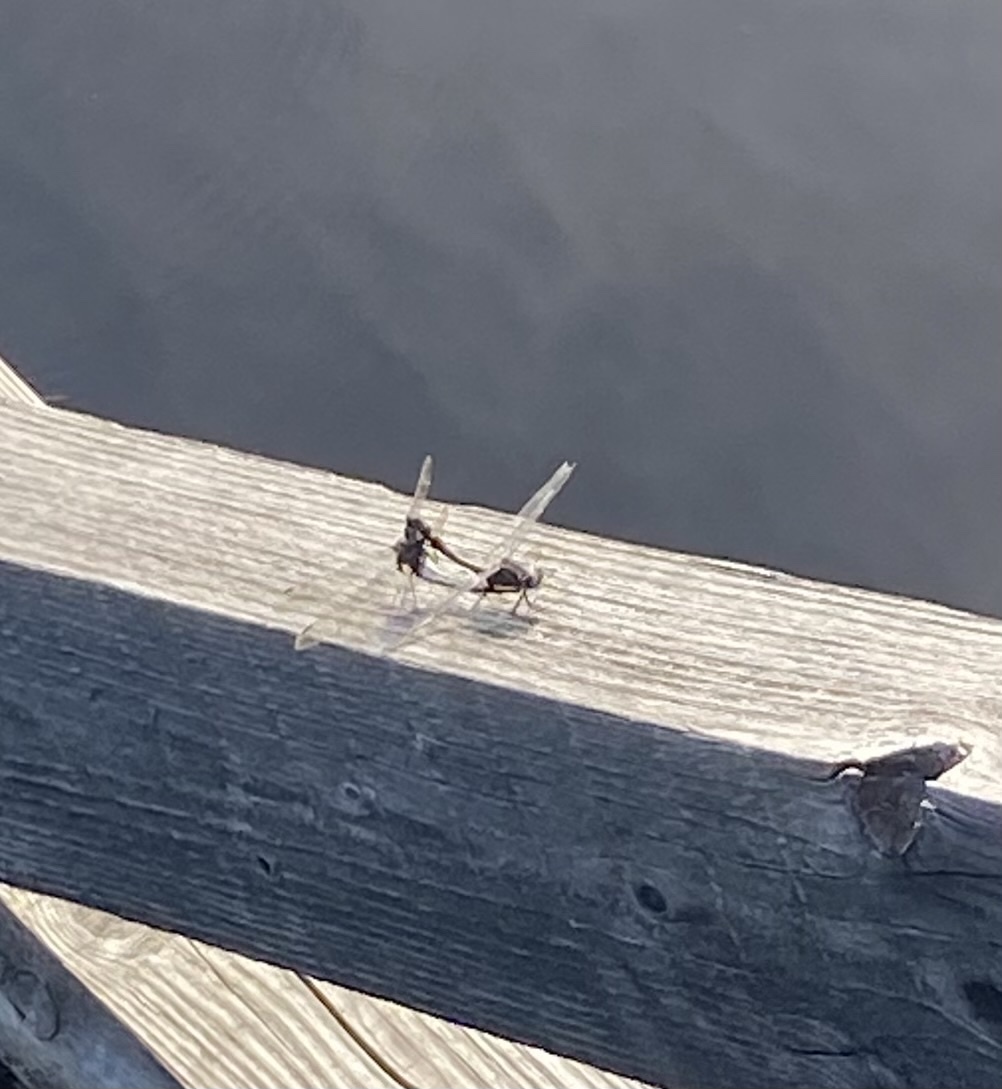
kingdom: Animalia
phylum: Arthropoda
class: Insecta
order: Odonata
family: Libellulidae
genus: Leucorrhinia
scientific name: Leucorrhinia orientalis
